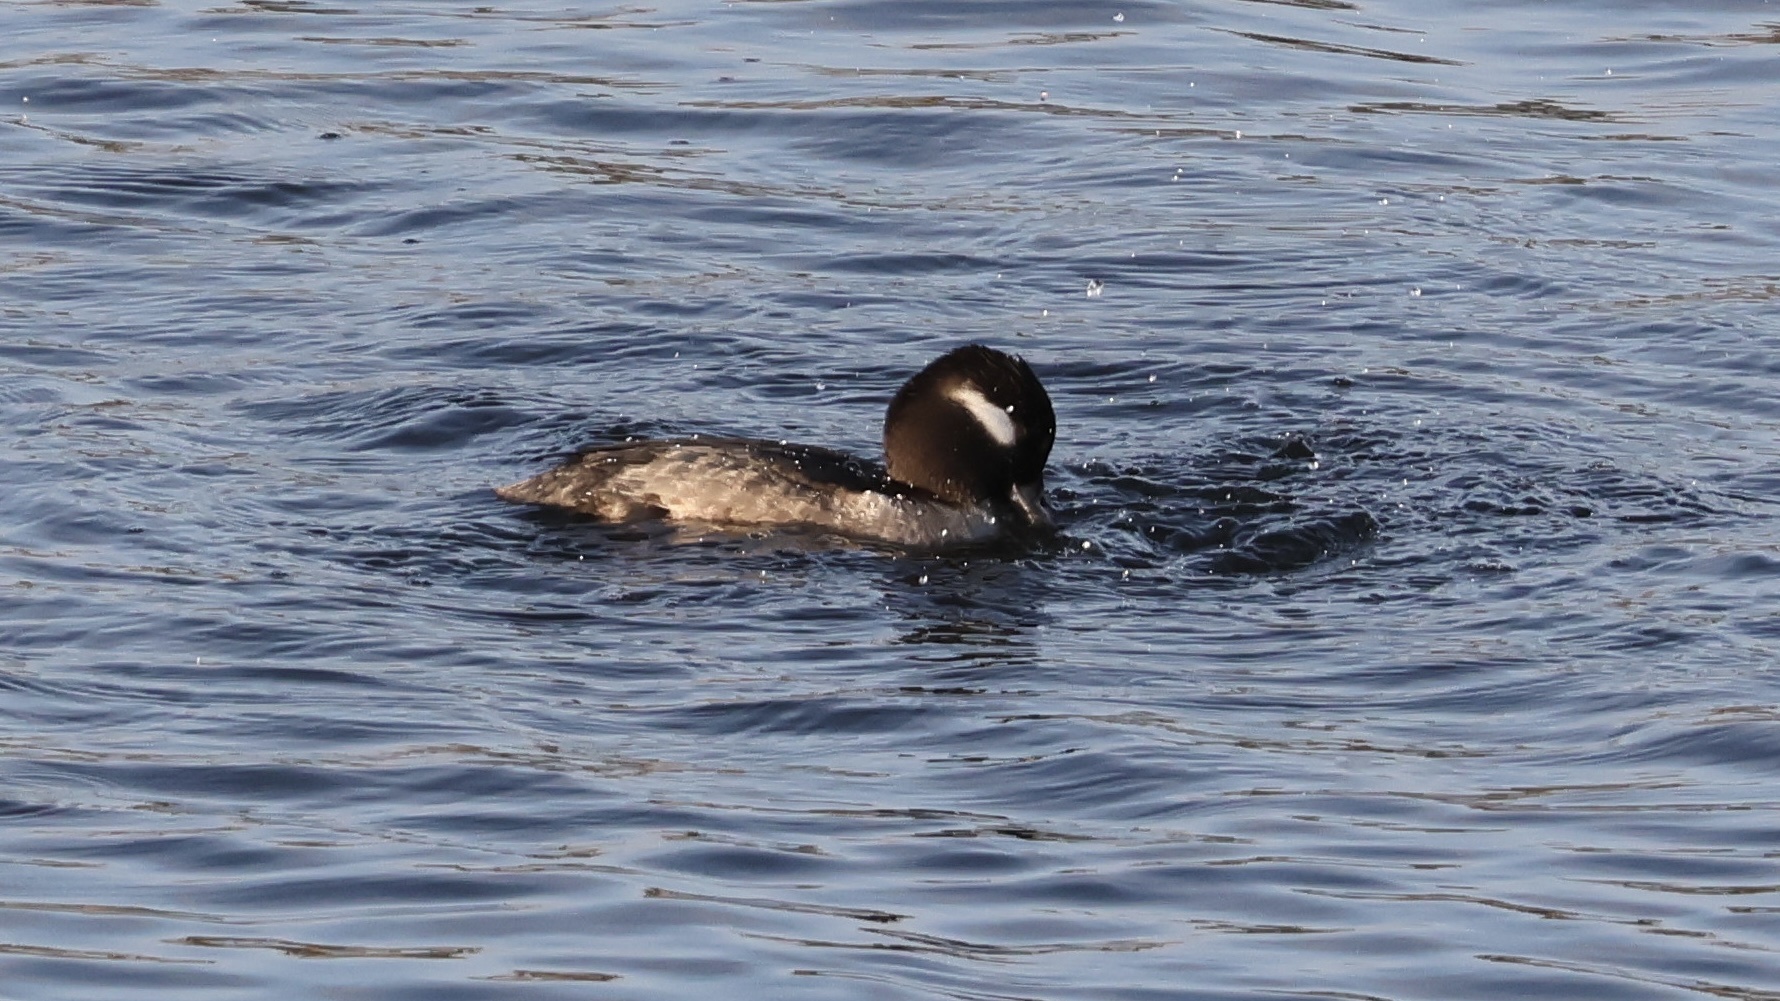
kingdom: Animalia
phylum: Chordata
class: Aves
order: Anseriformes
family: Anatidae
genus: Bucephala
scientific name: Bucephala albeola
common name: Bufflehead
